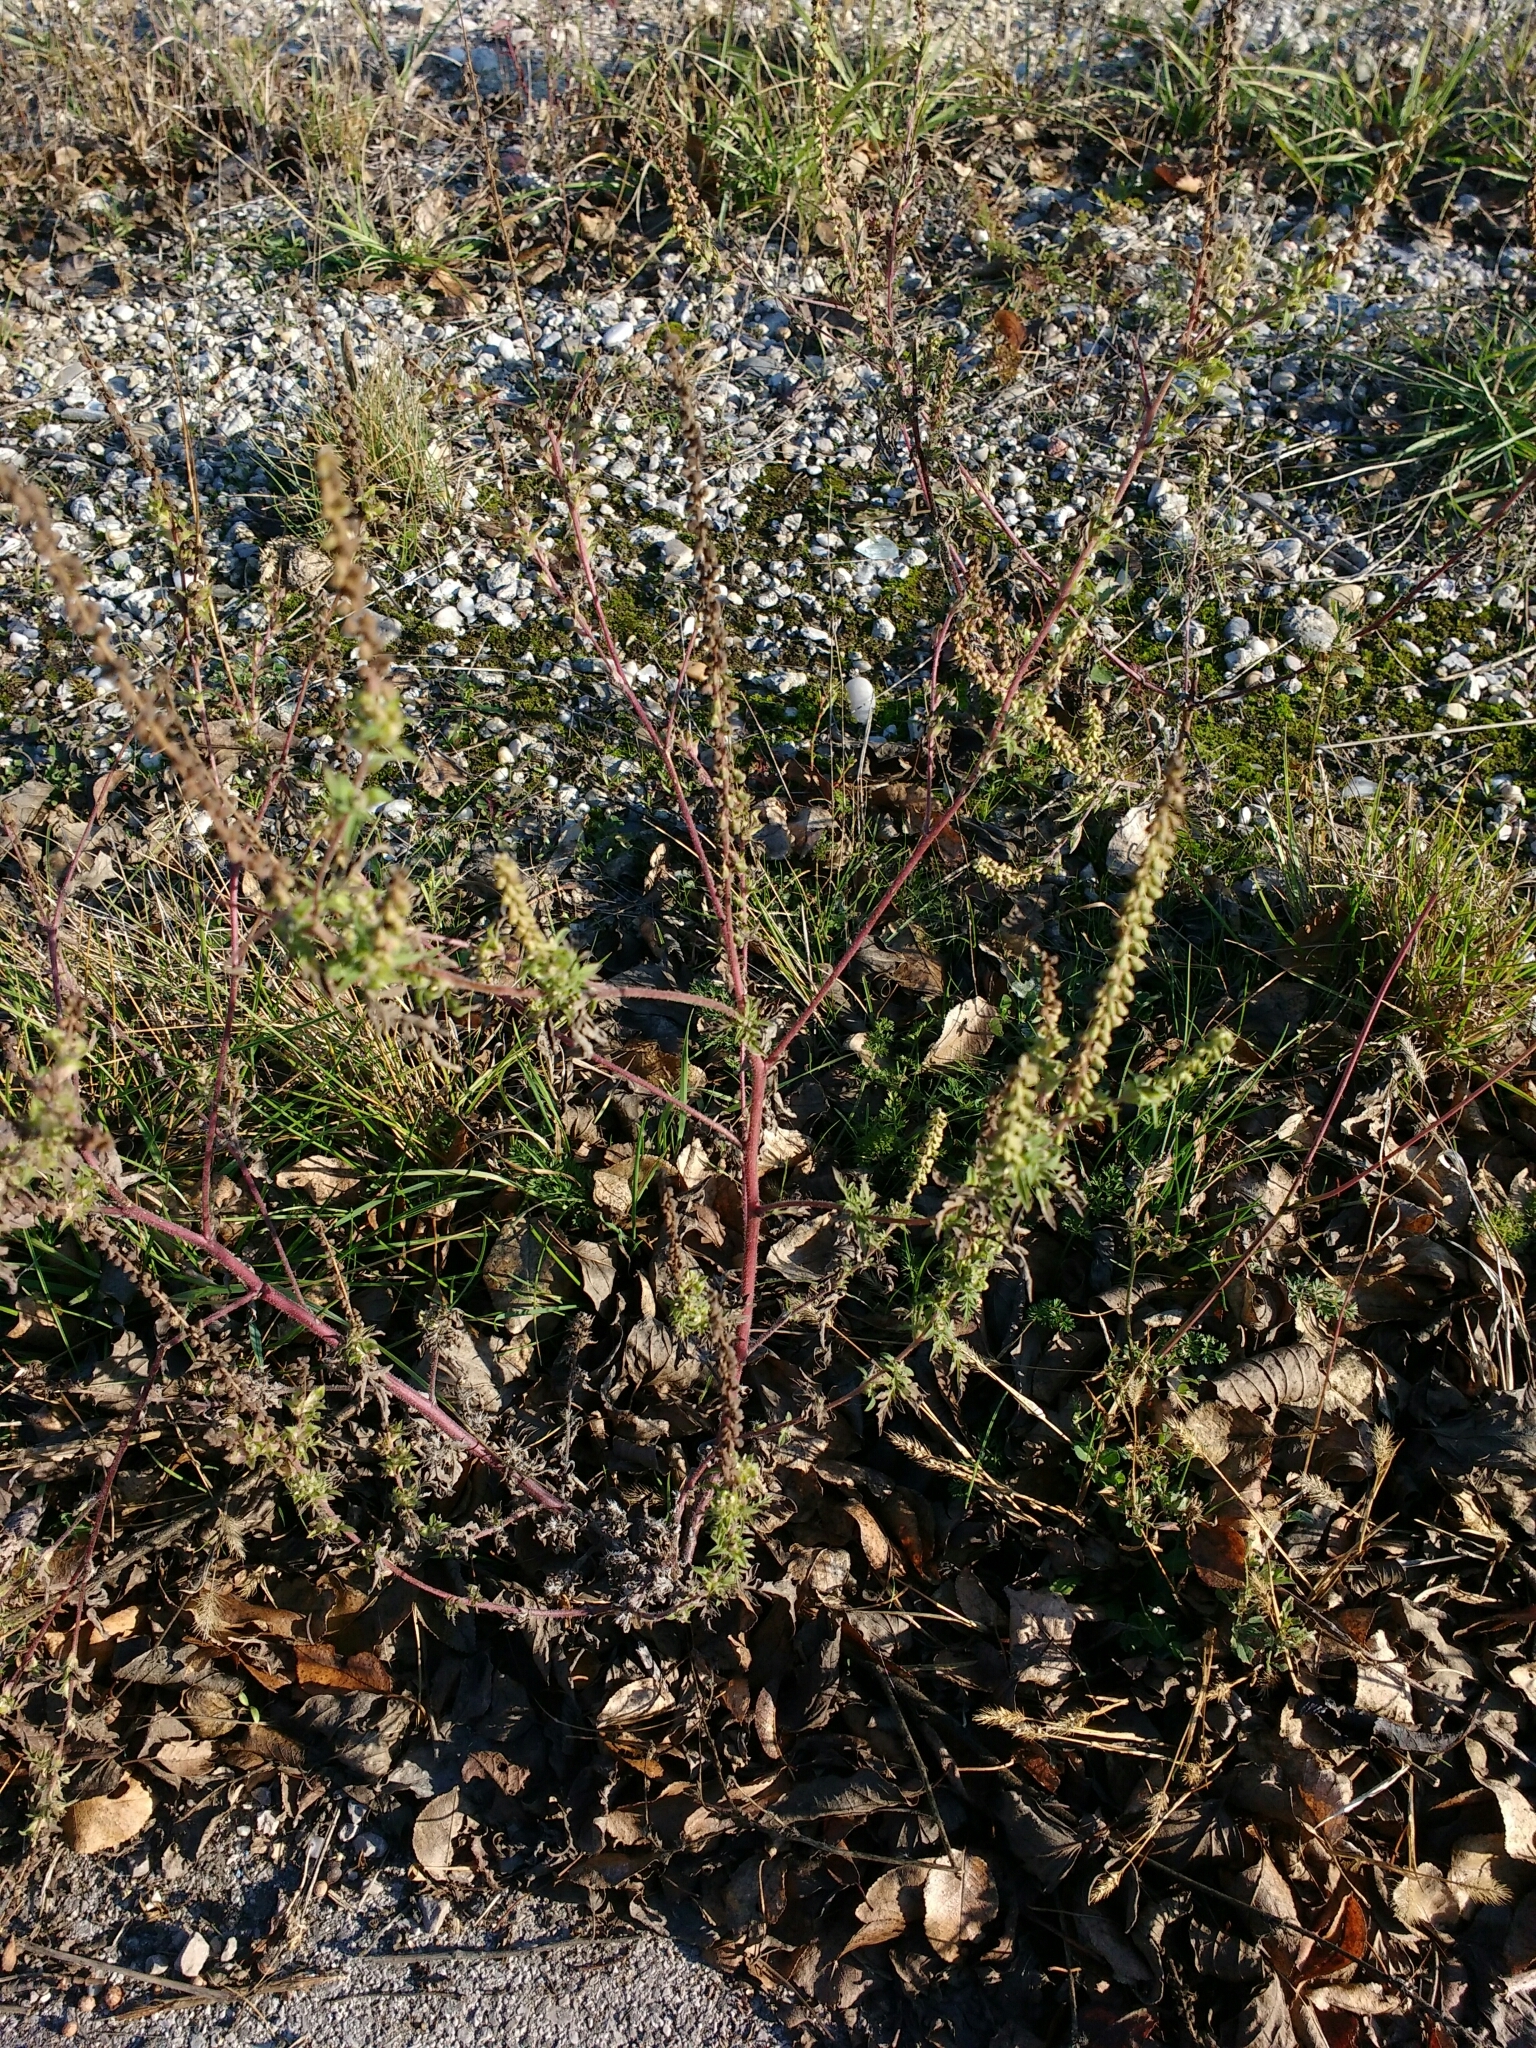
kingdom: Plantae
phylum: Tracheophyta
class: Magnoliopsida
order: Asterales
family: Asteraceae
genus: Ambrosia
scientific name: Ambrosia artemisiifolia
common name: Annual ragweed
